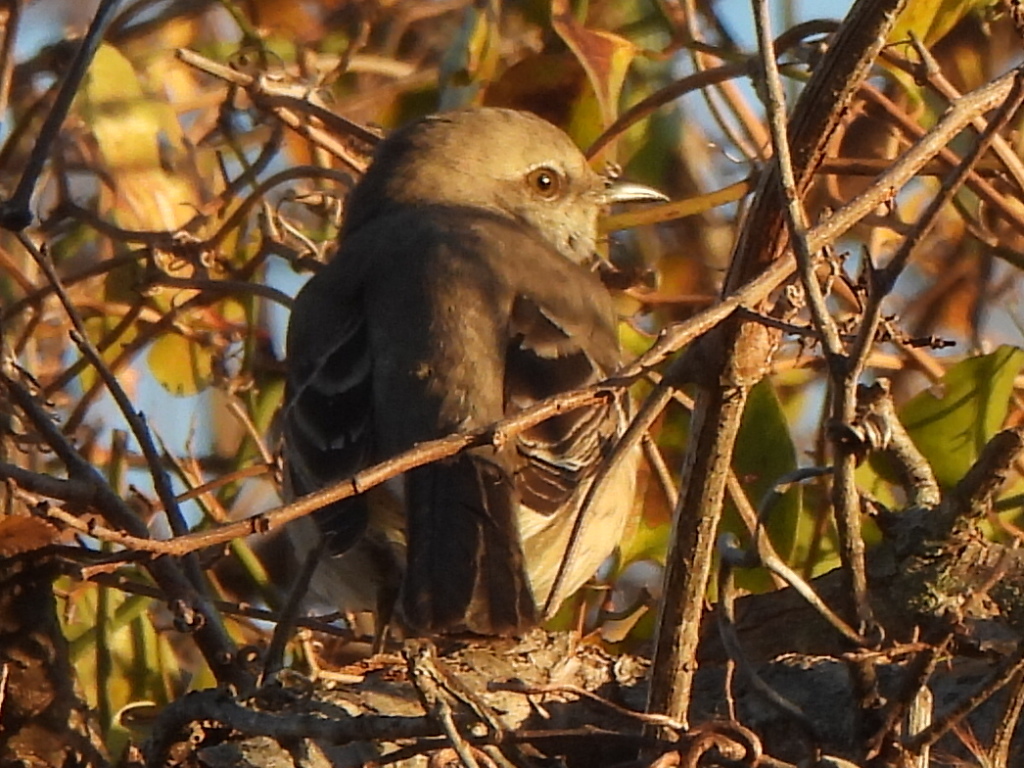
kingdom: Animalia
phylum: Chordata
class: Aves
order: Passeriformes
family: Mimidae
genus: Mimus
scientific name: Mimus polyglottos
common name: Northern mockingbird
